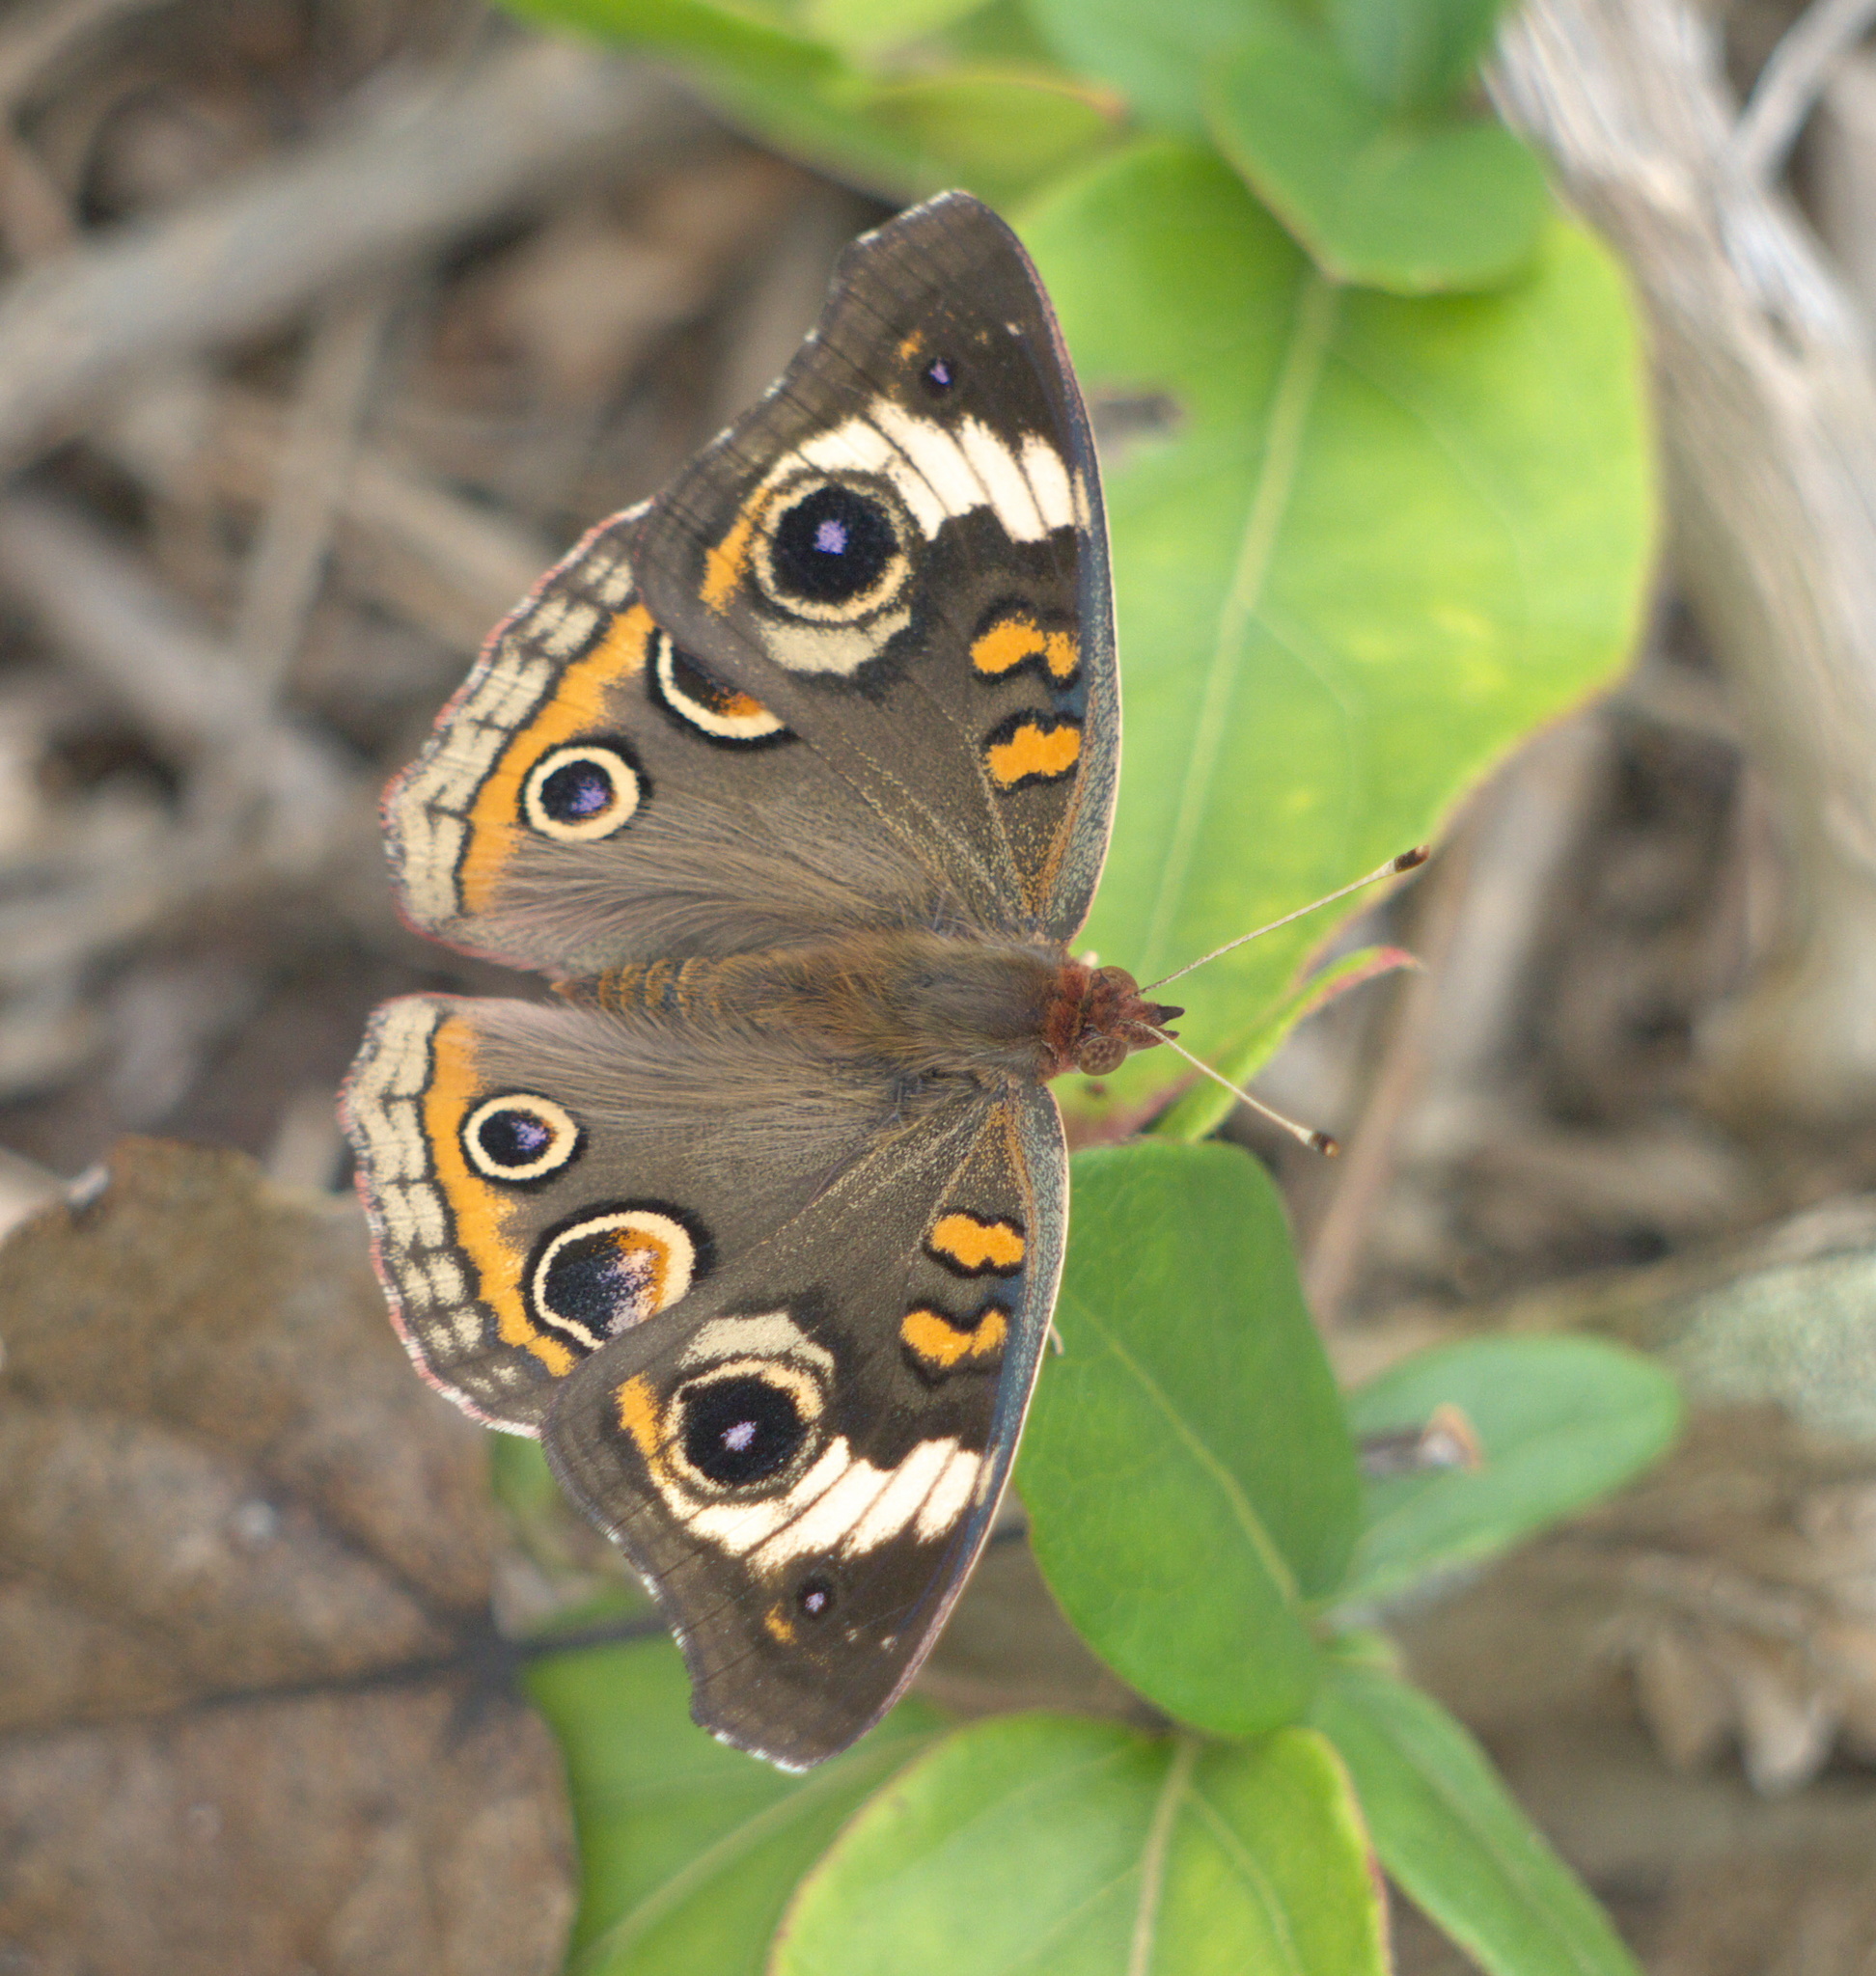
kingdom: Animalia
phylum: Arthropoda
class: Insecta
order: Lepidoptera
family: Nymphalidae
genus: Junonia
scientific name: Junonia coenia
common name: Common buckeye
